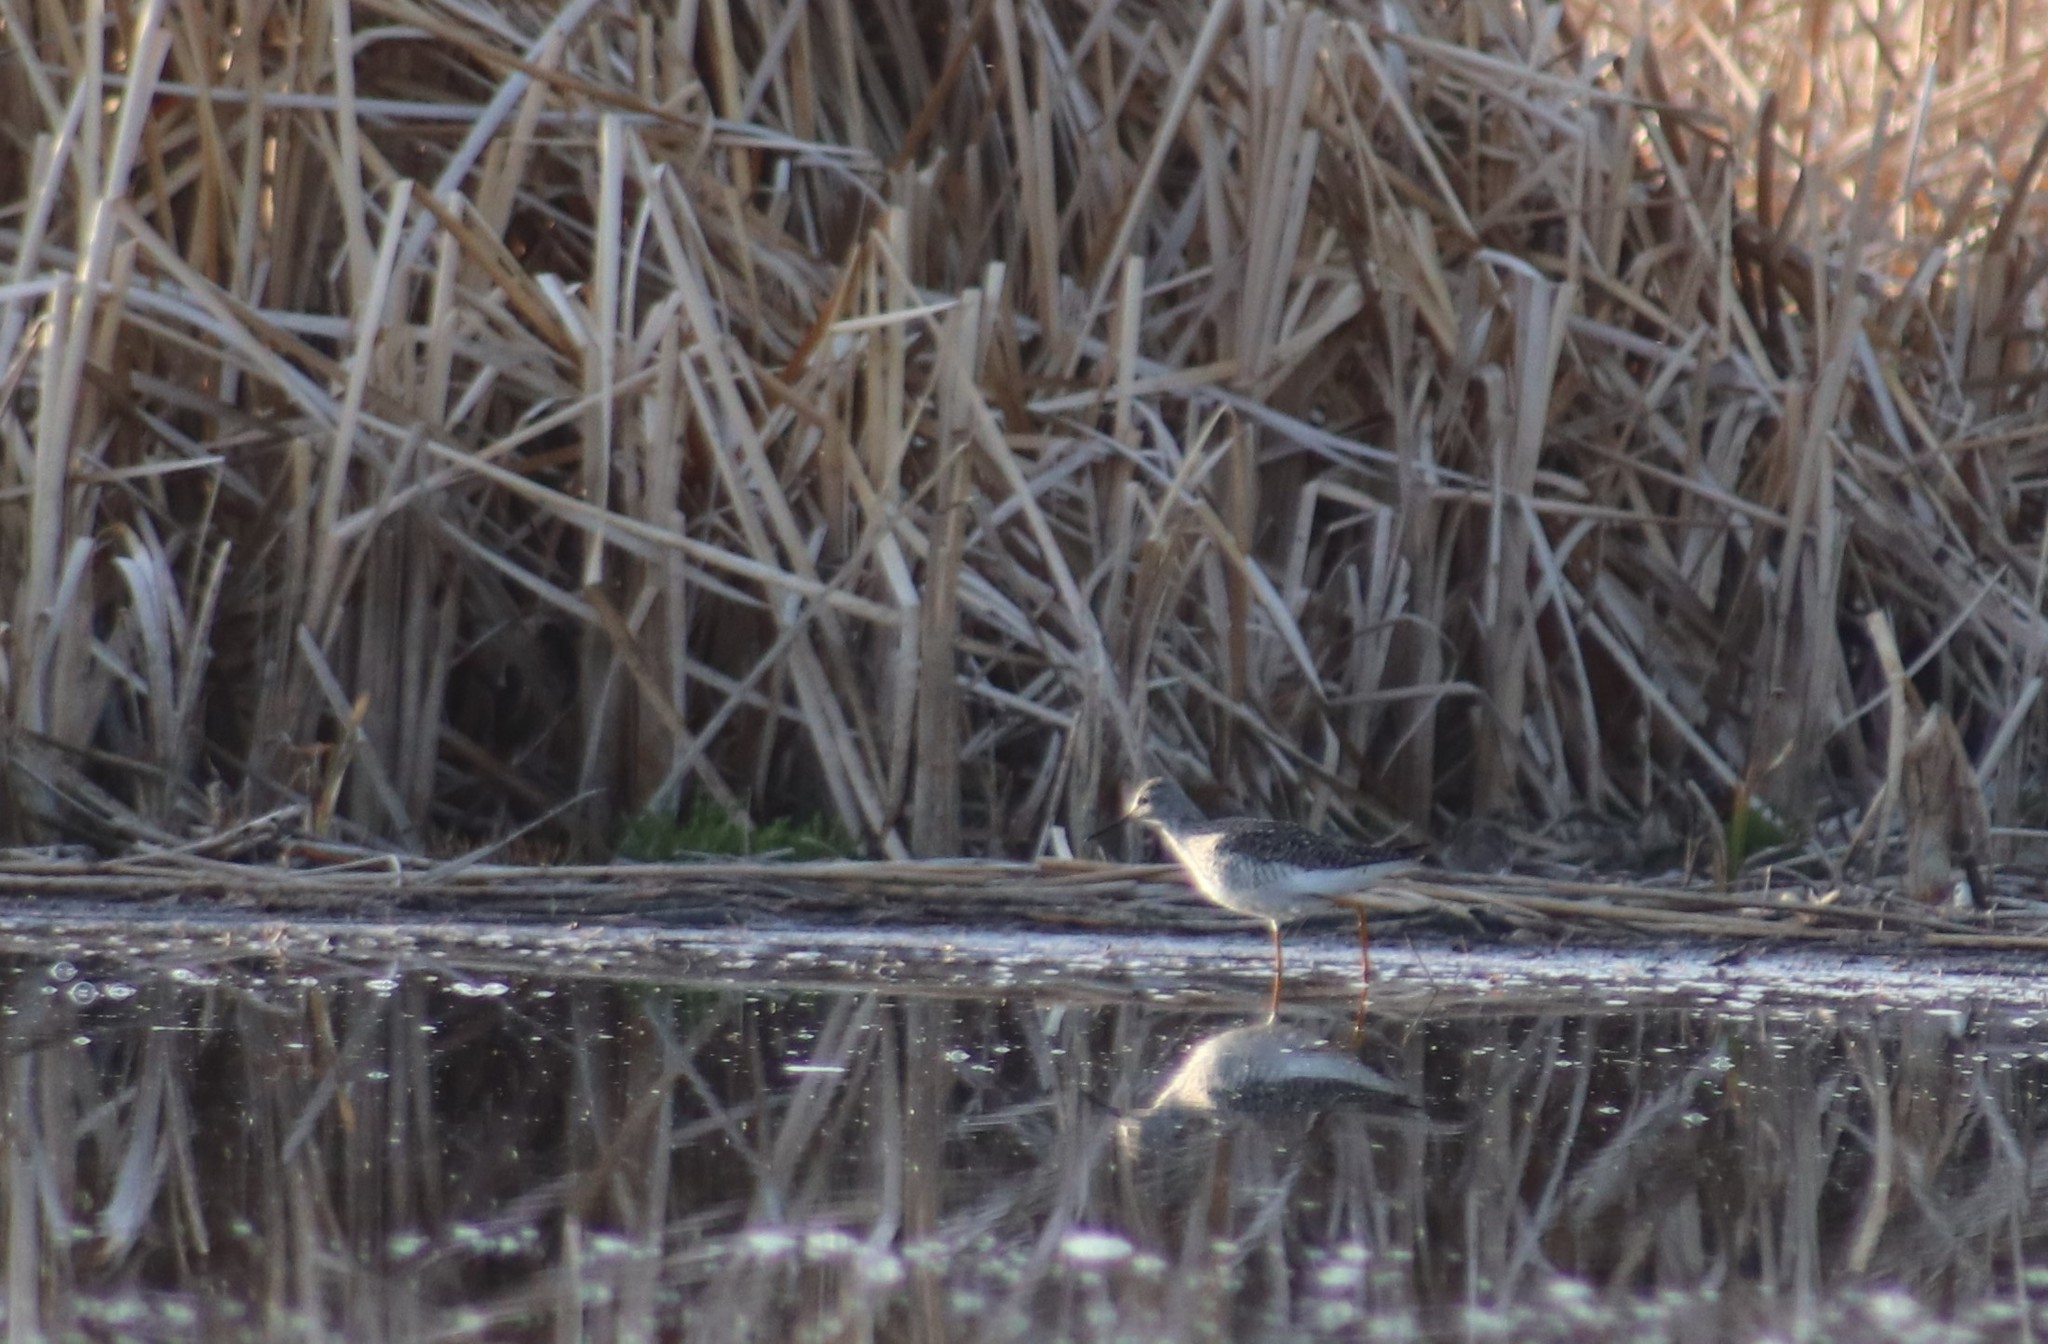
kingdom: Animalia
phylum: Chordata
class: Aves
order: Charadriiformes
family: Scolopacidae
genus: Tringa
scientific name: Tringa flavipes
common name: Lesser yellowlegs
